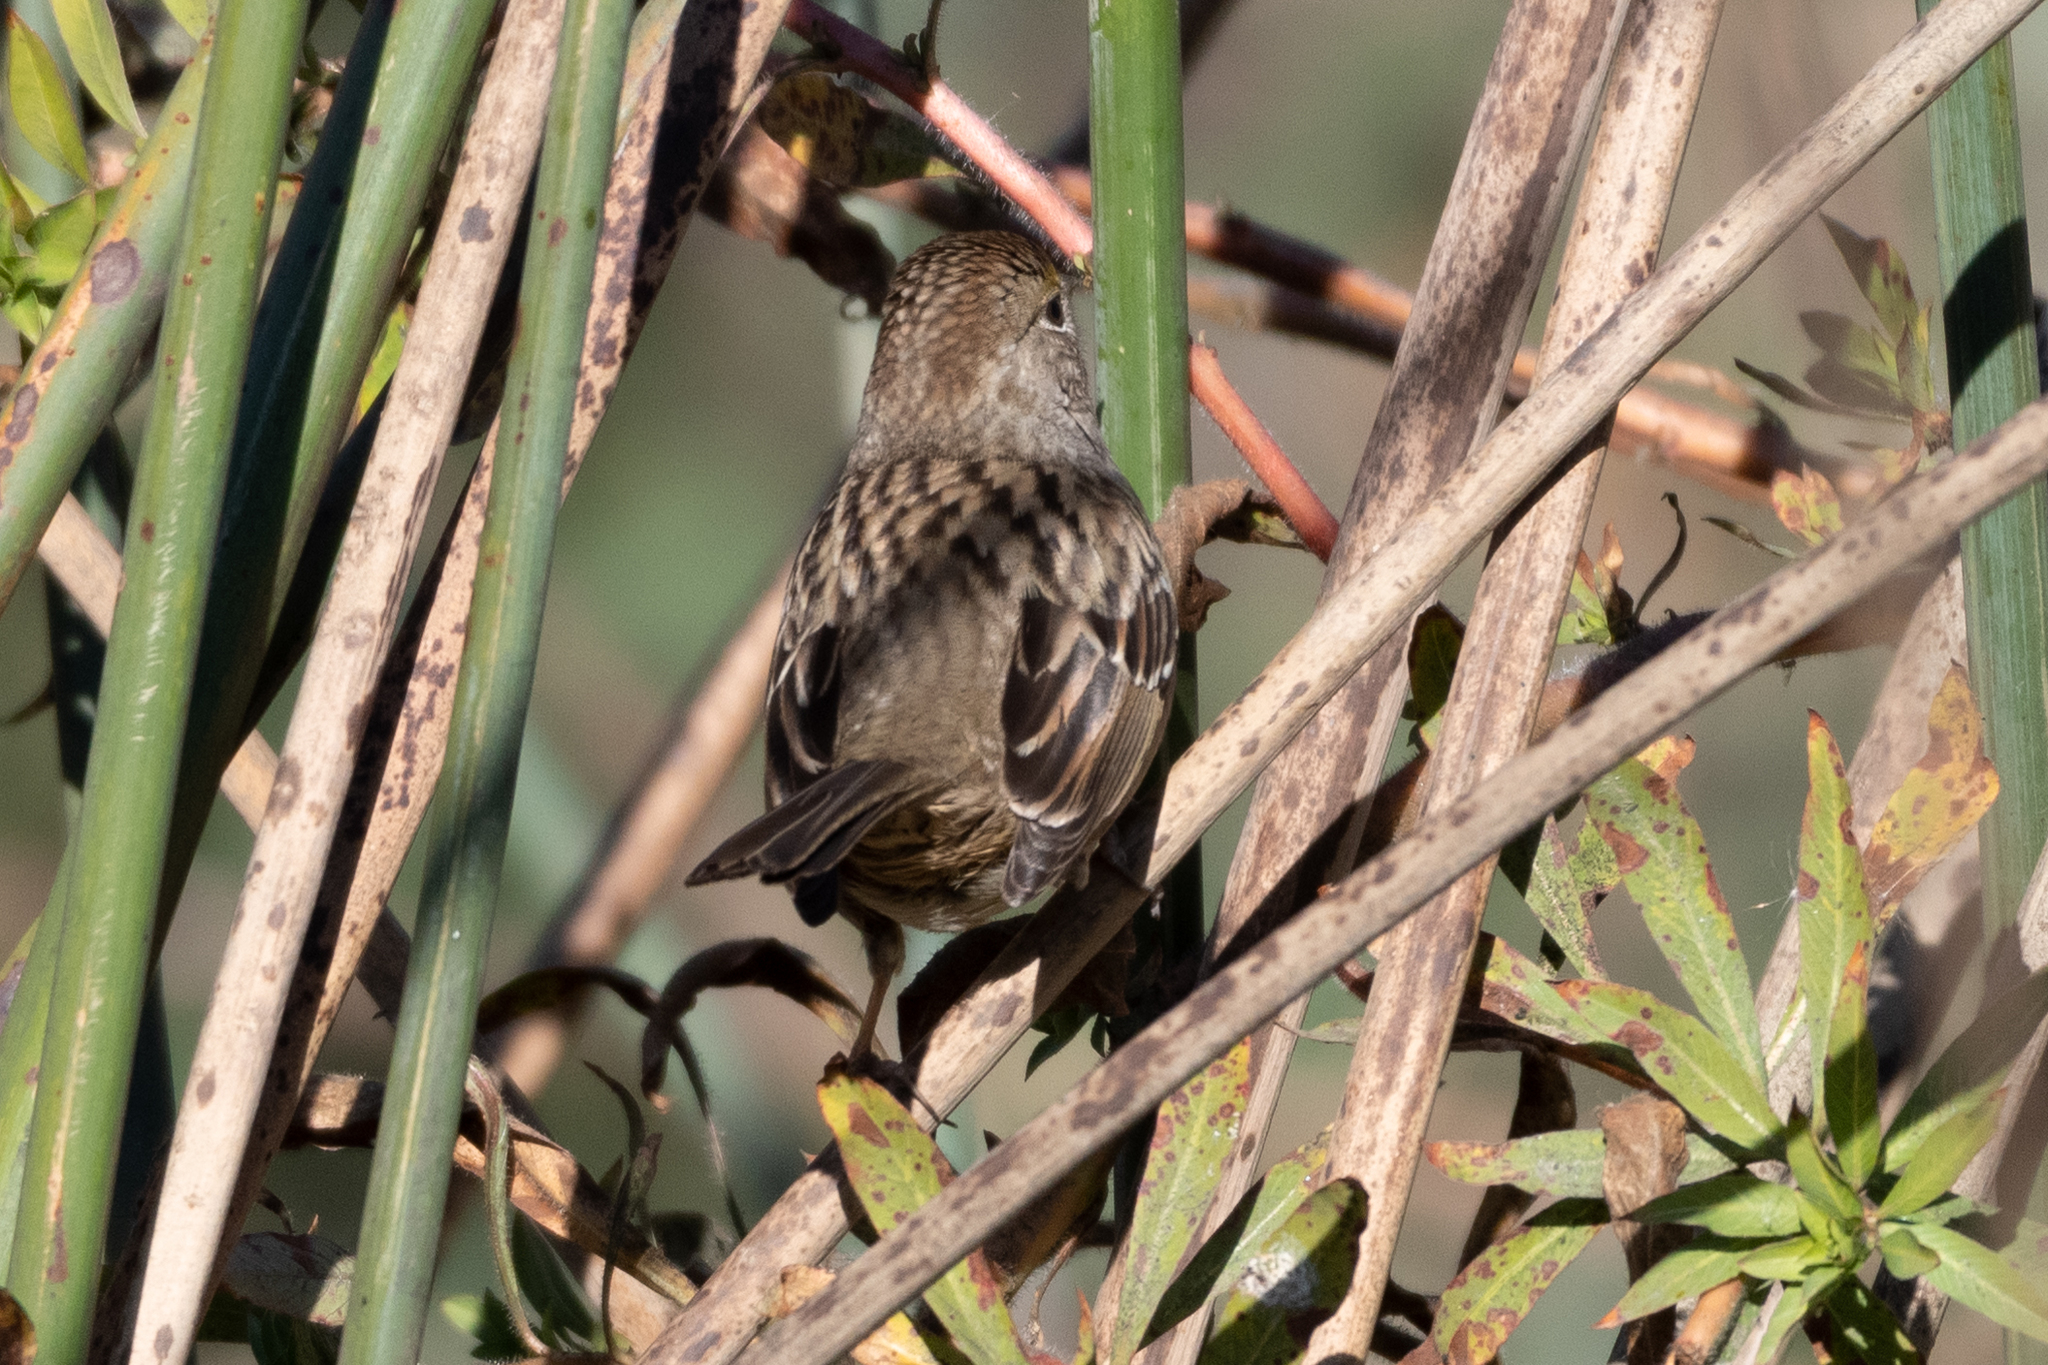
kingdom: Animalia
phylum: Chordata
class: Aves
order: Passeriformes
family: Passerellidae
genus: Zonotrichia
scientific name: Zonotrichia atricapilla
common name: Golden-crowned sparrow
